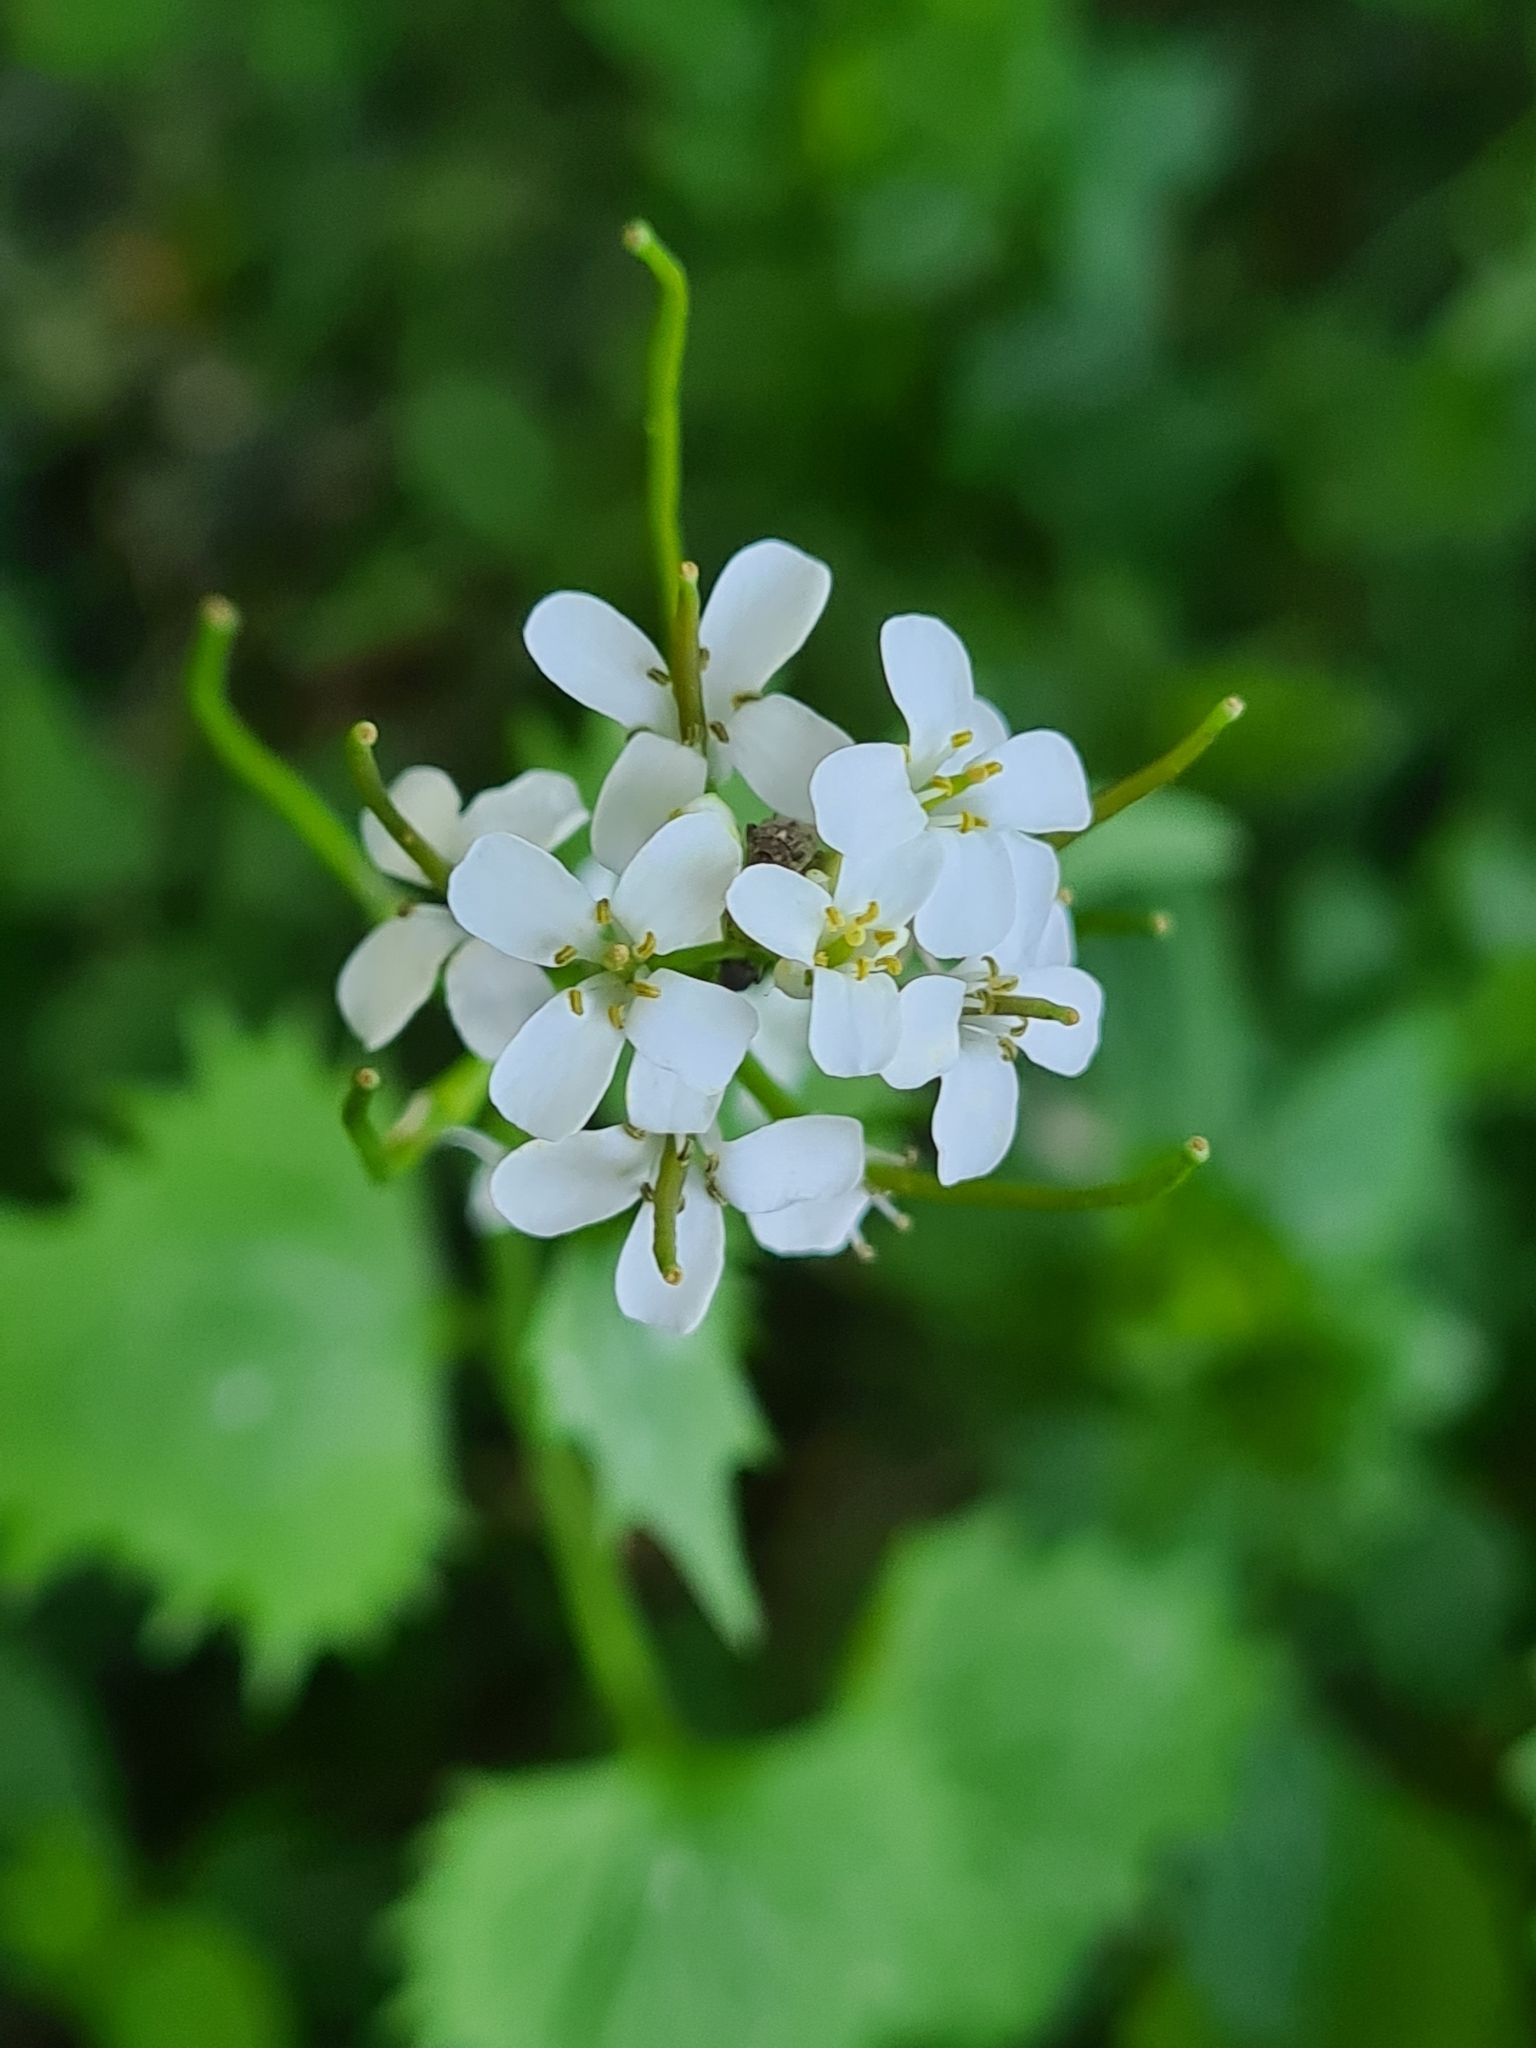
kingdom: Plantae
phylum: Tracheophyta
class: Magnoliopsida
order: Brassicales
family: Brassicaceae
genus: Alliaria
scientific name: Alliaria petiolata
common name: Garlic mustard
